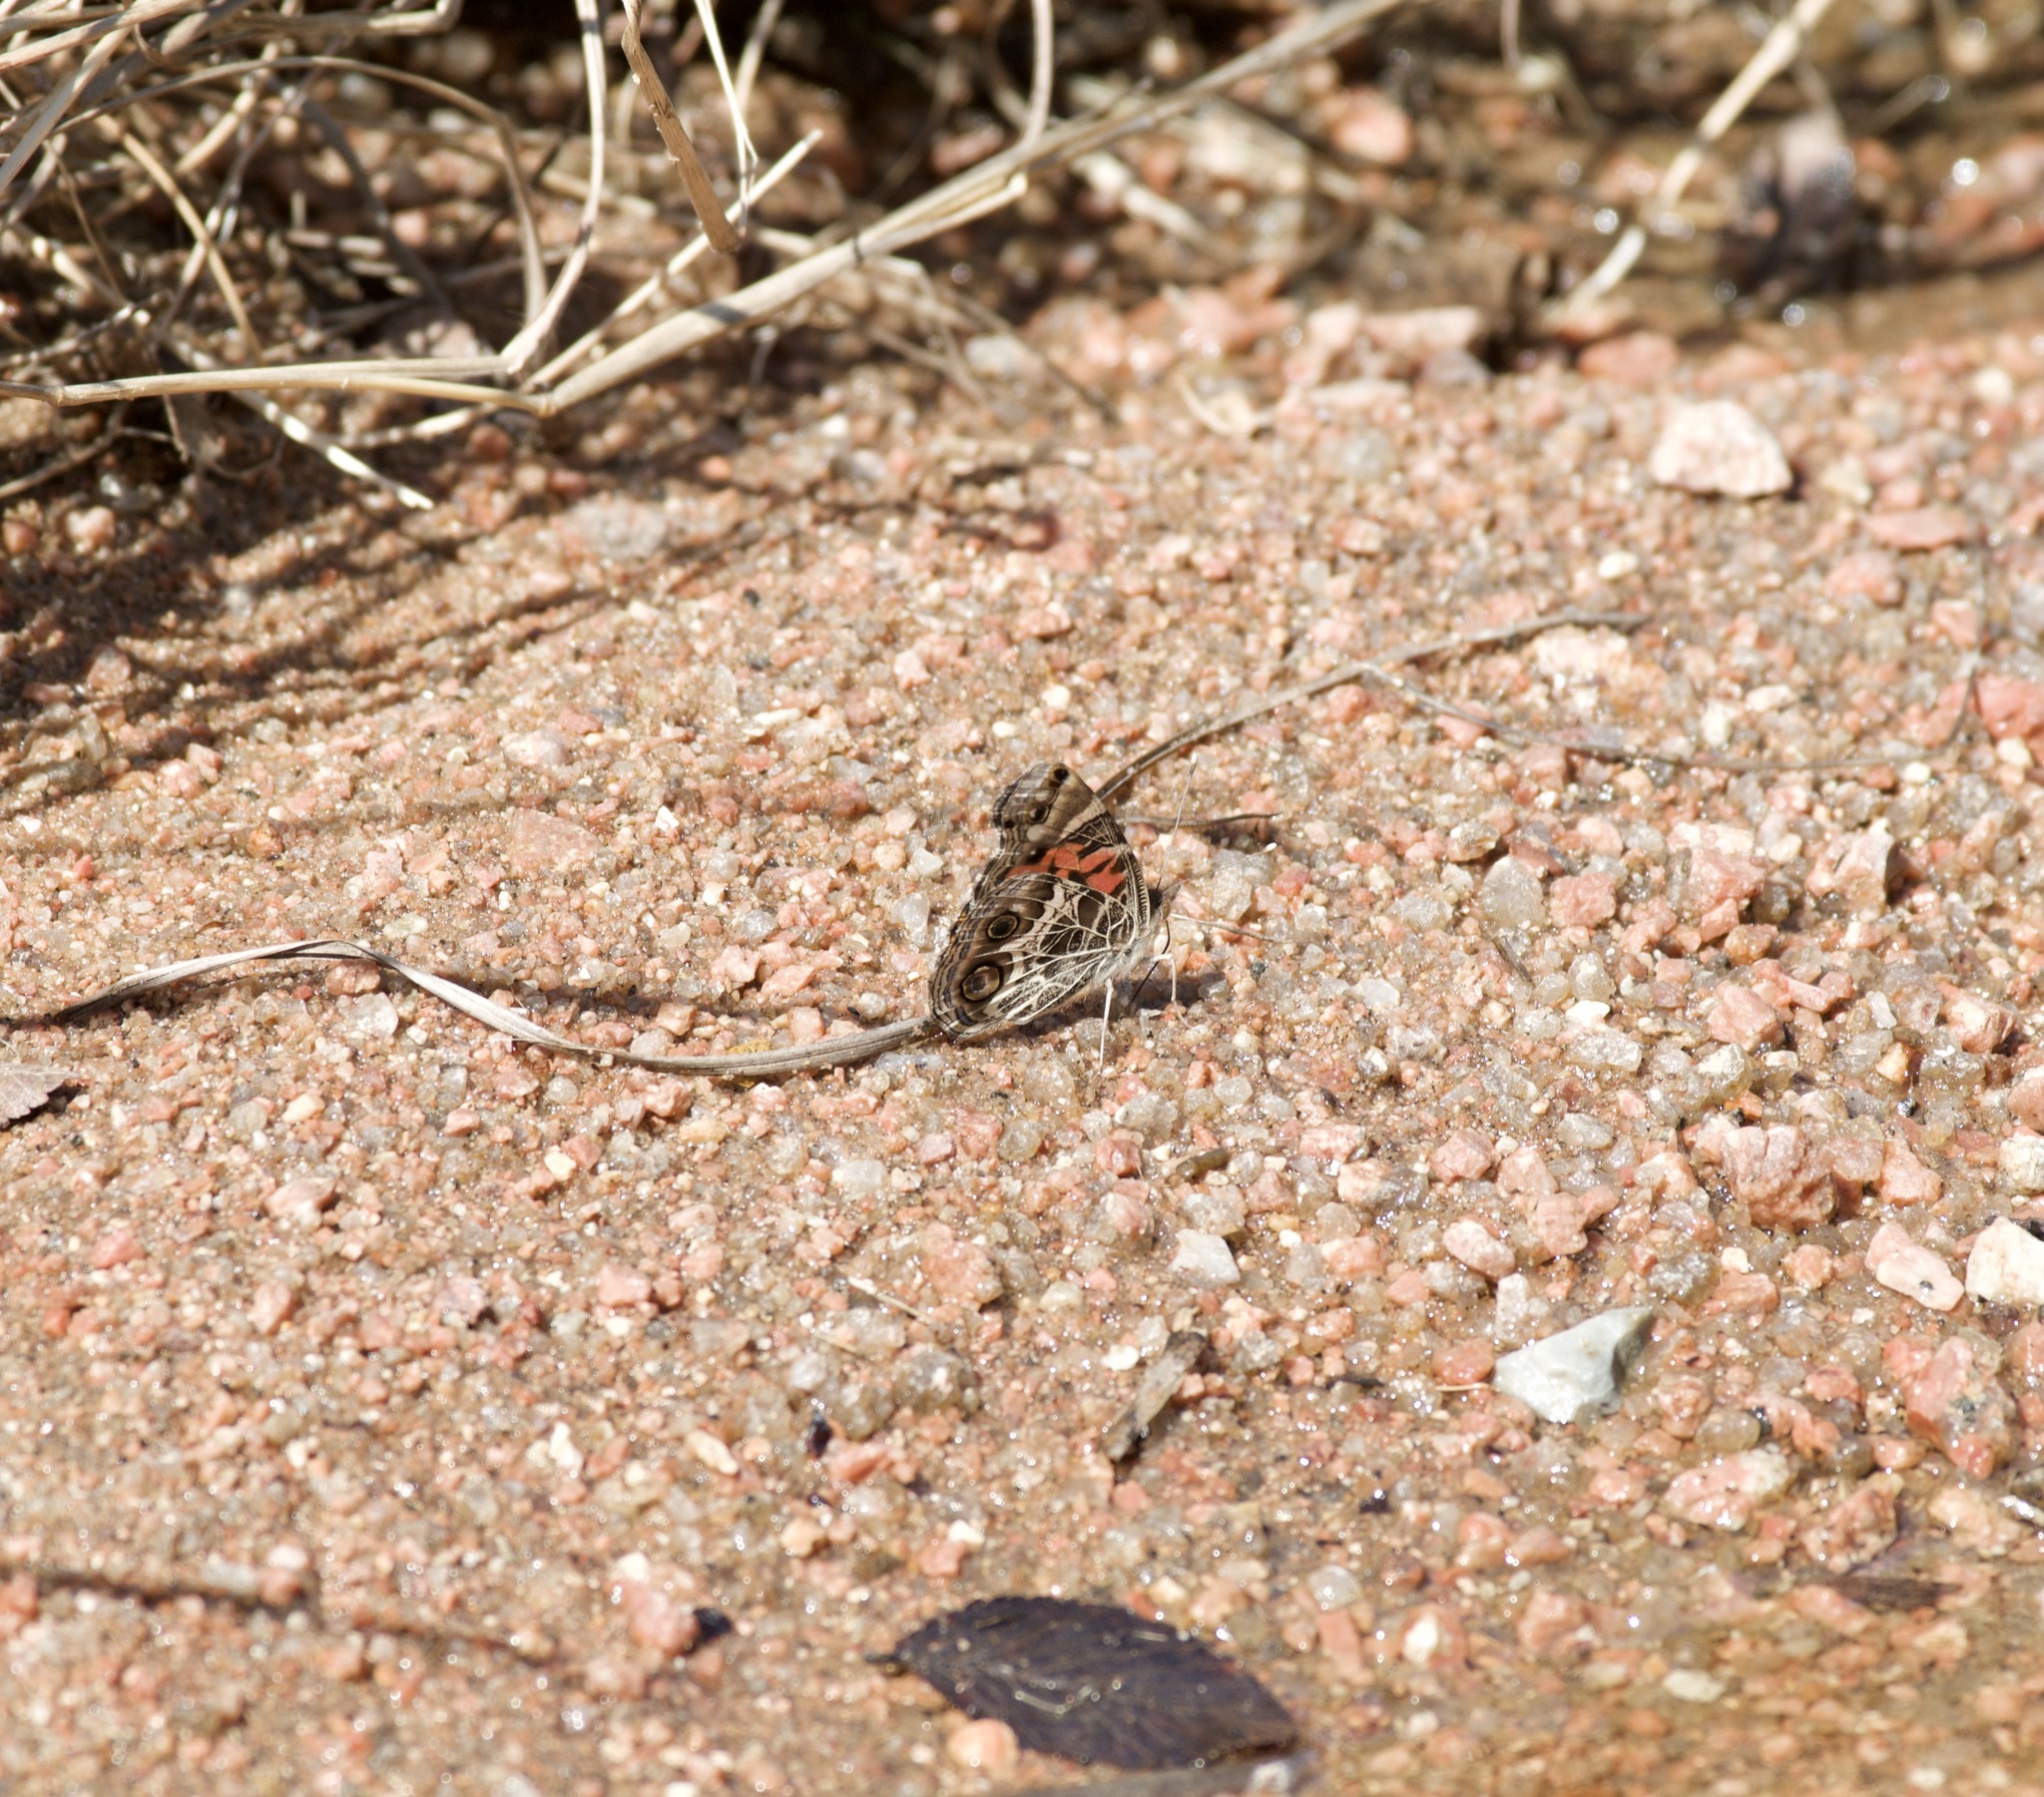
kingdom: Animalia
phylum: Arthropoda
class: Insecta
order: Lepidoptera
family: Nymphalidae
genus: Vanessa
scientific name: Vanessa virginiensis
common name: American lady
